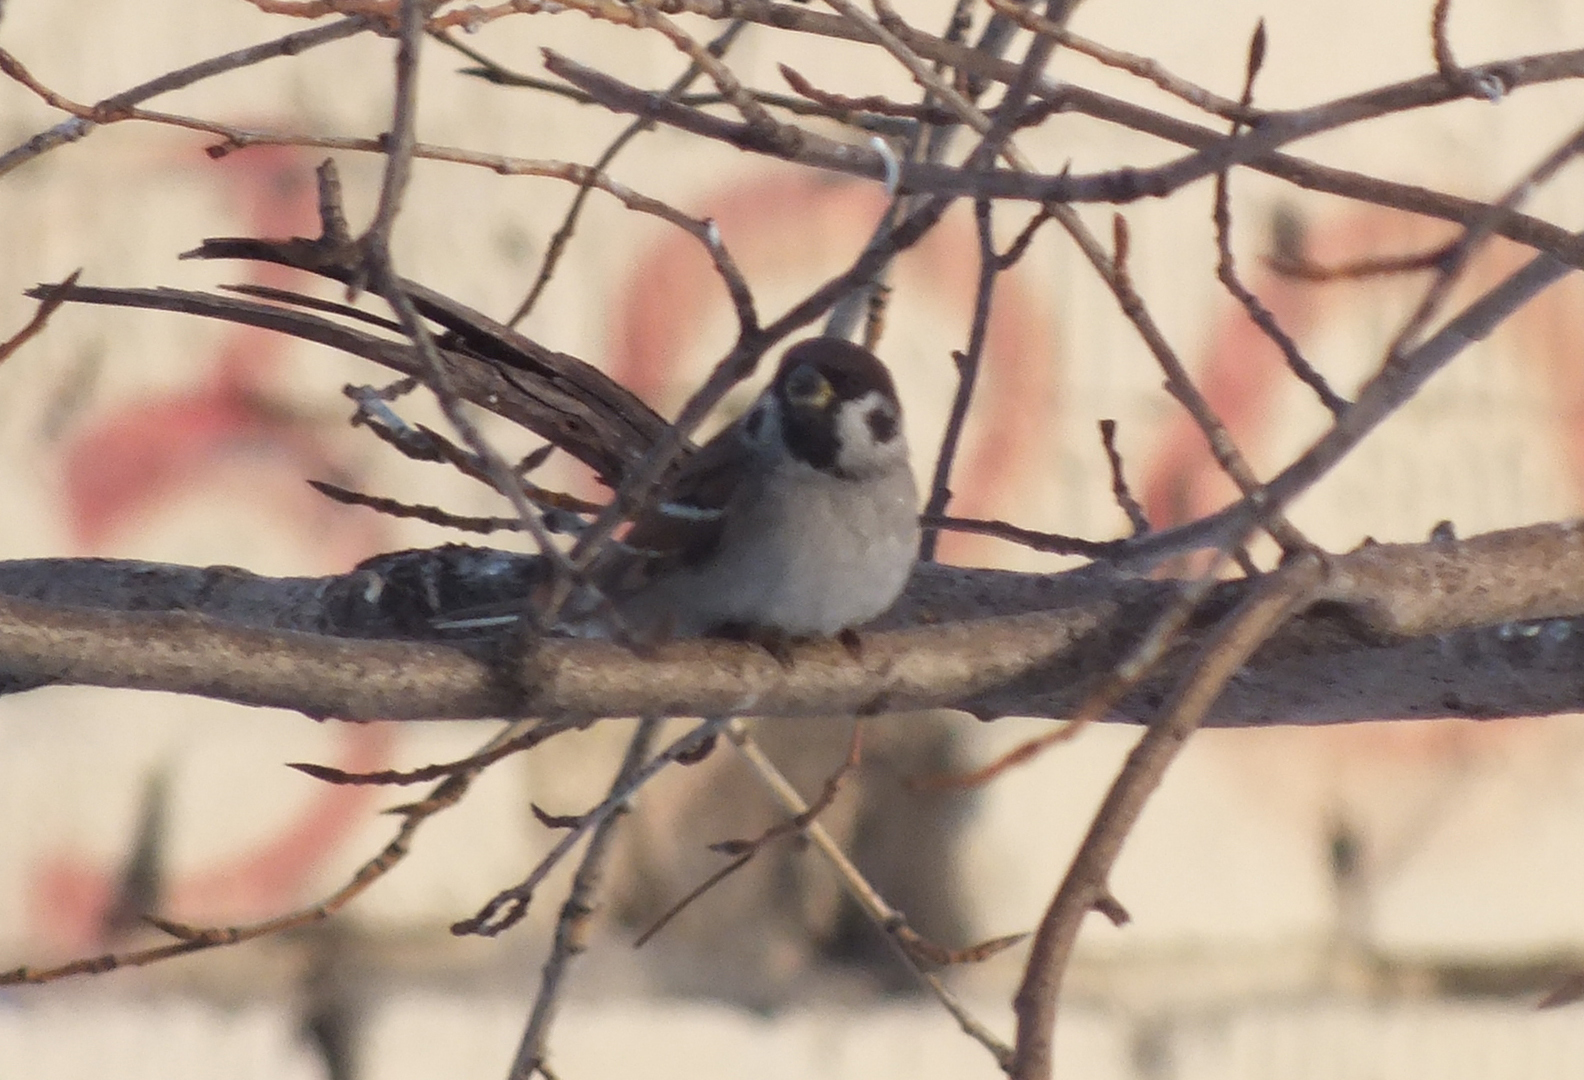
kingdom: Animalia
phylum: Chordata
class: Aves
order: Passeriformes
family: Passeridae
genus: Passer
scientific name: Passer montanus
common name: Eurasian tree sparrow
